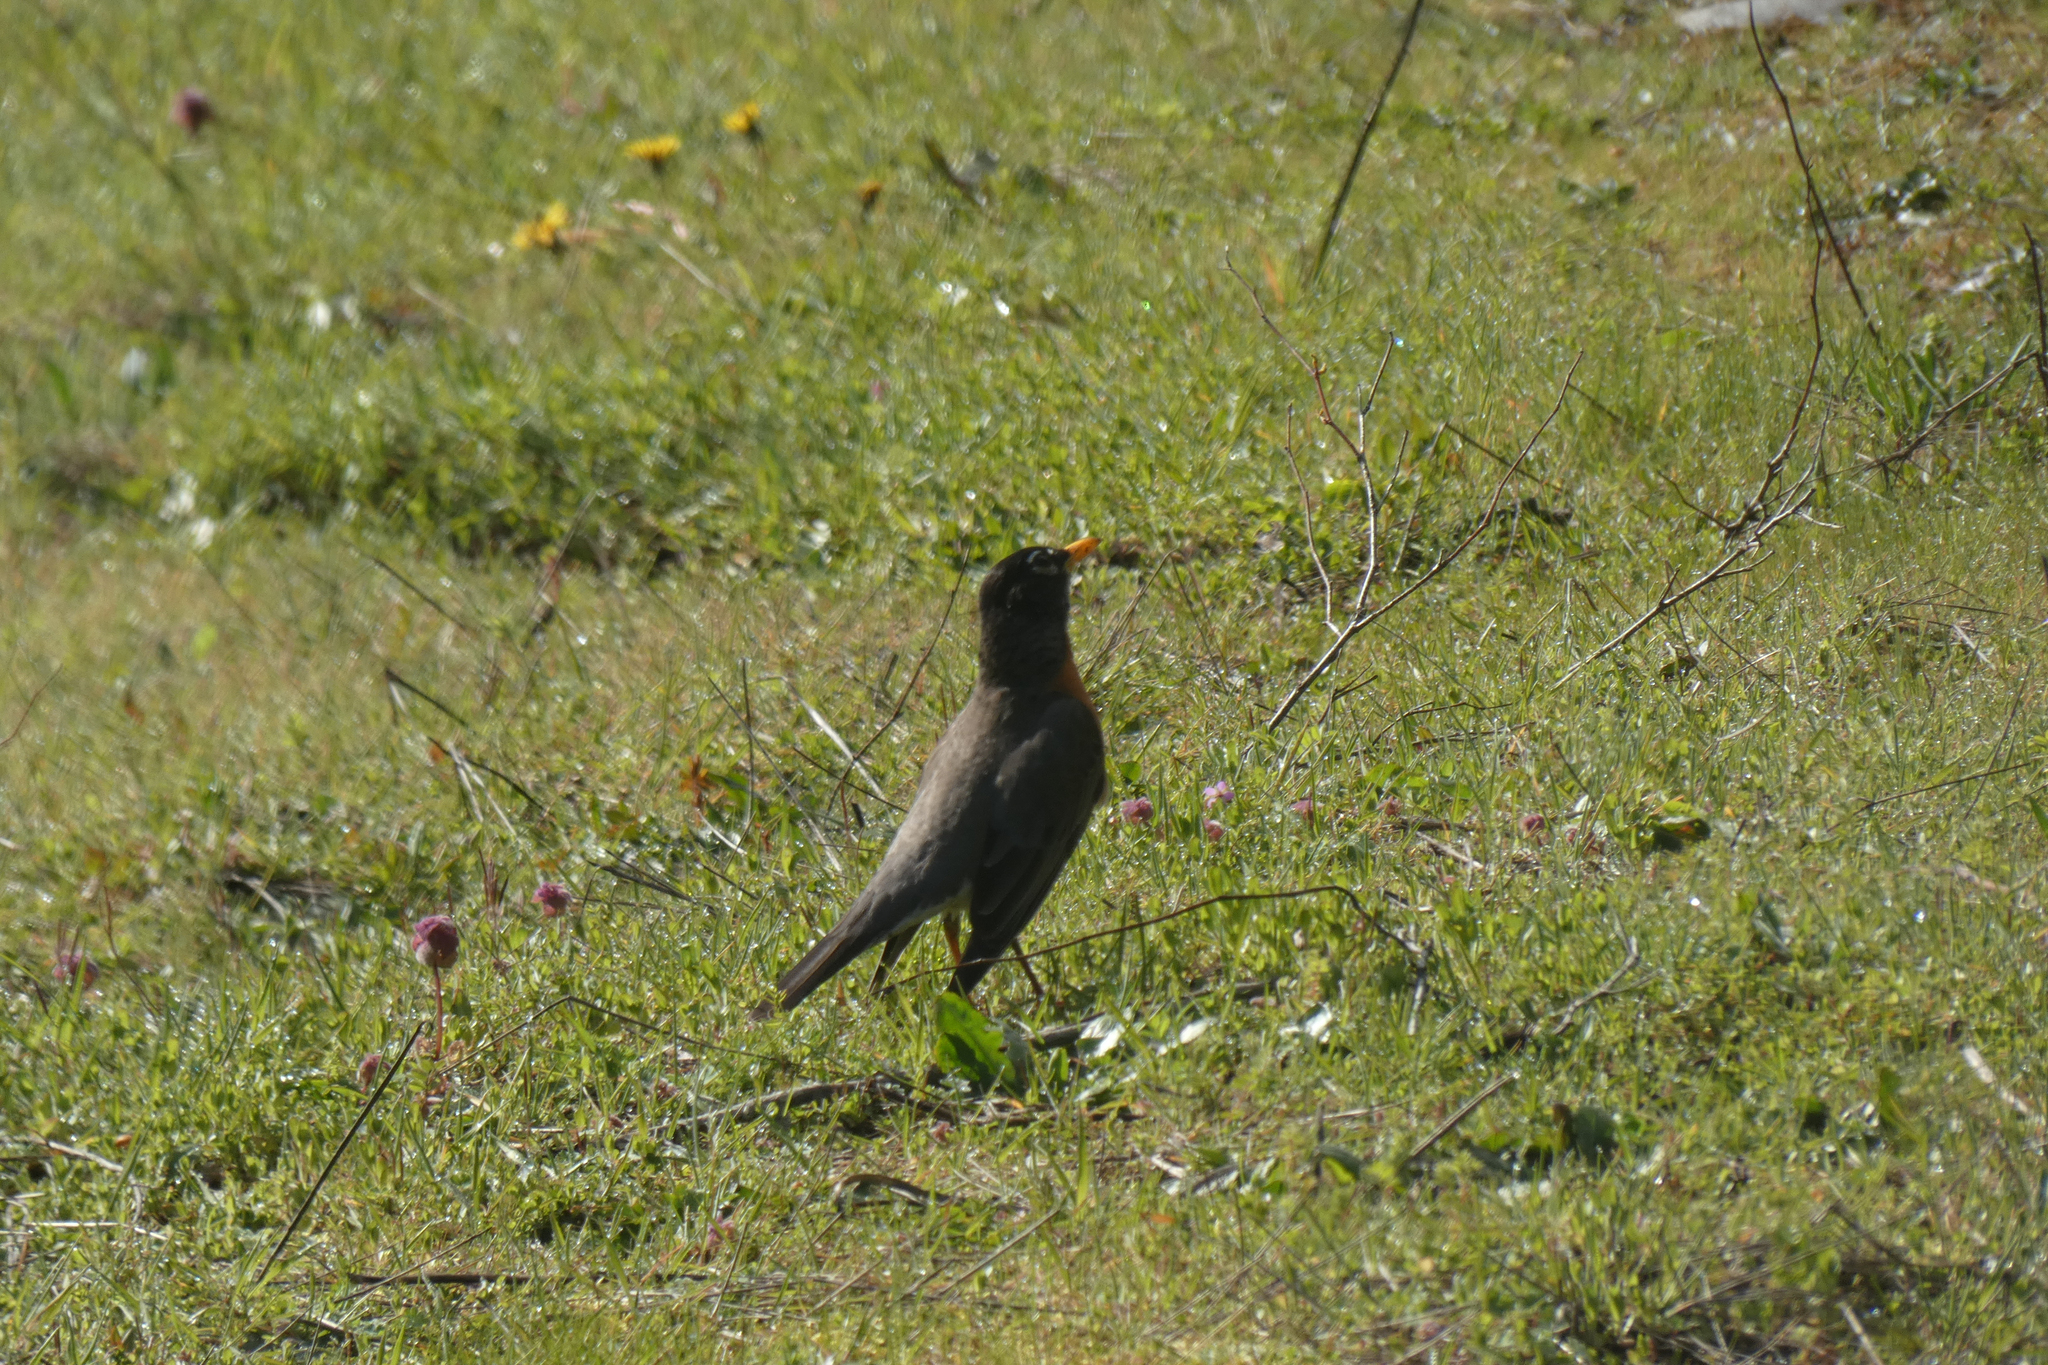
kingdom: Animalia
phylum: Chordata
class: Aves
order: Passeriformes
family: Turdidae
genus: Turdus
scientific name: Turdus migratorius
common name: American robin
